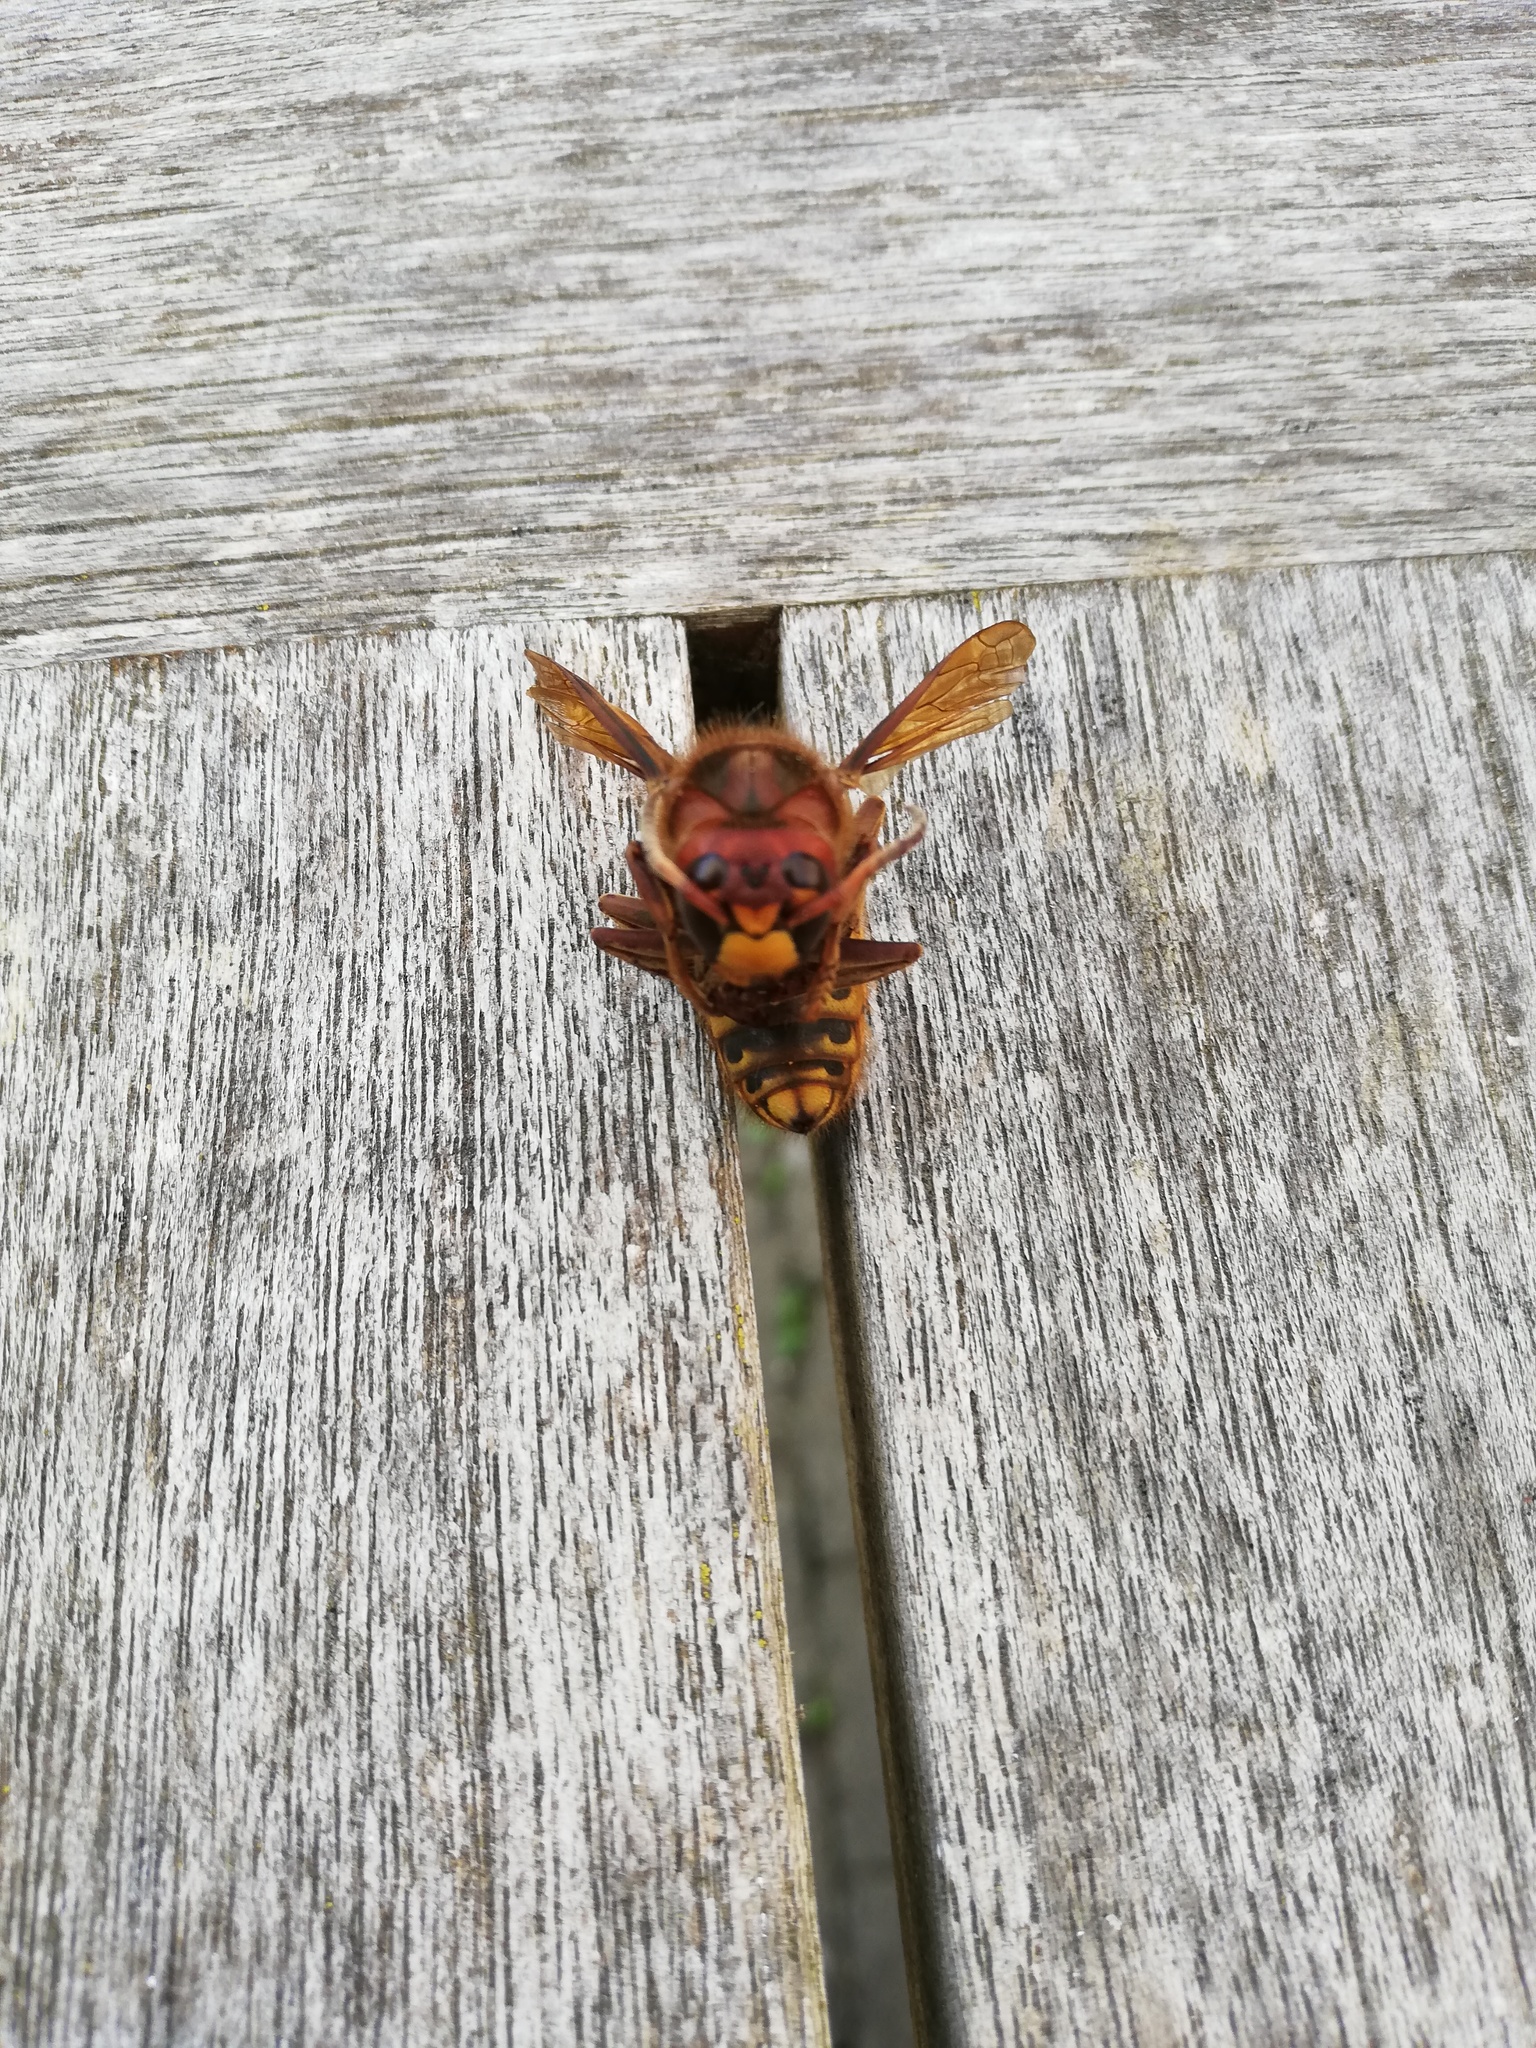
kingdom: Animalia
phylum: Arthropoda
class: Insecta
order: Hymenoptera
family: Vespidae
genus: Vespa
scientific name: Vespa crabro
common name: Hornet
